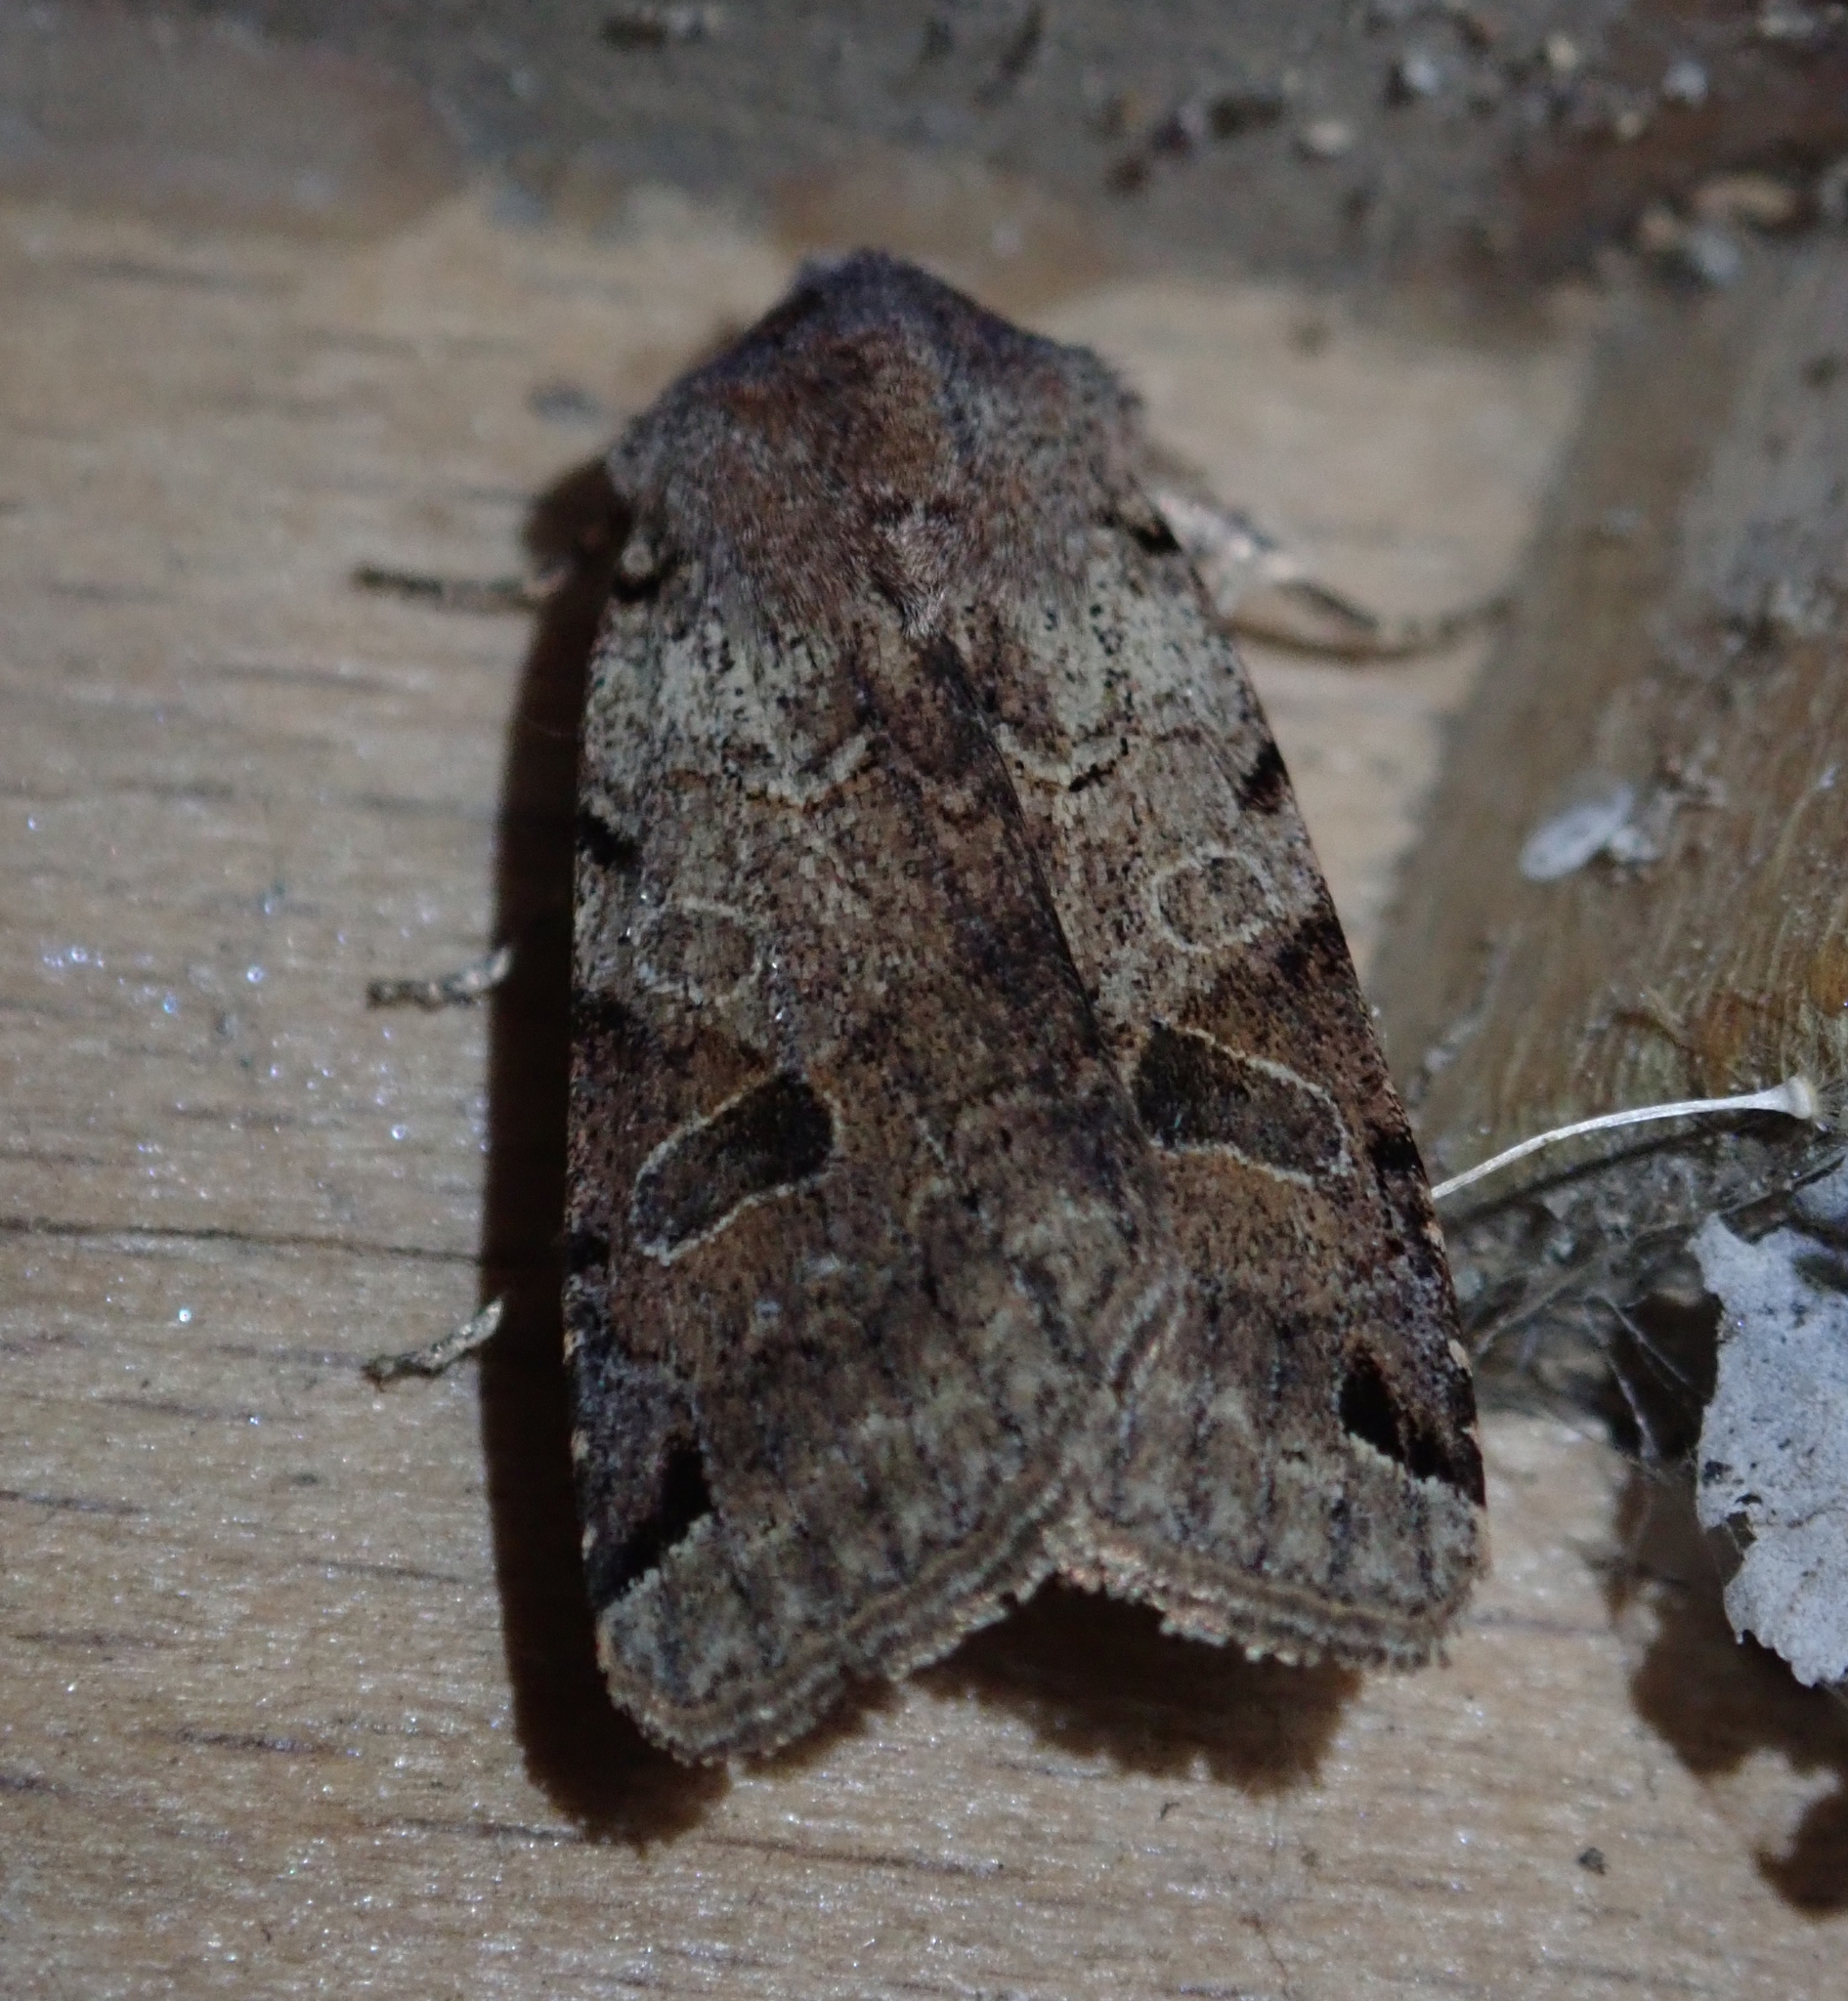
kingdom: Animalia
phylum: Arthropoda
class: Insecta
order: Lepidoptera
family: Noctuidae
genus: Agrochola
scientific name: Agrochola litura
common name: Brown-spot pinion
